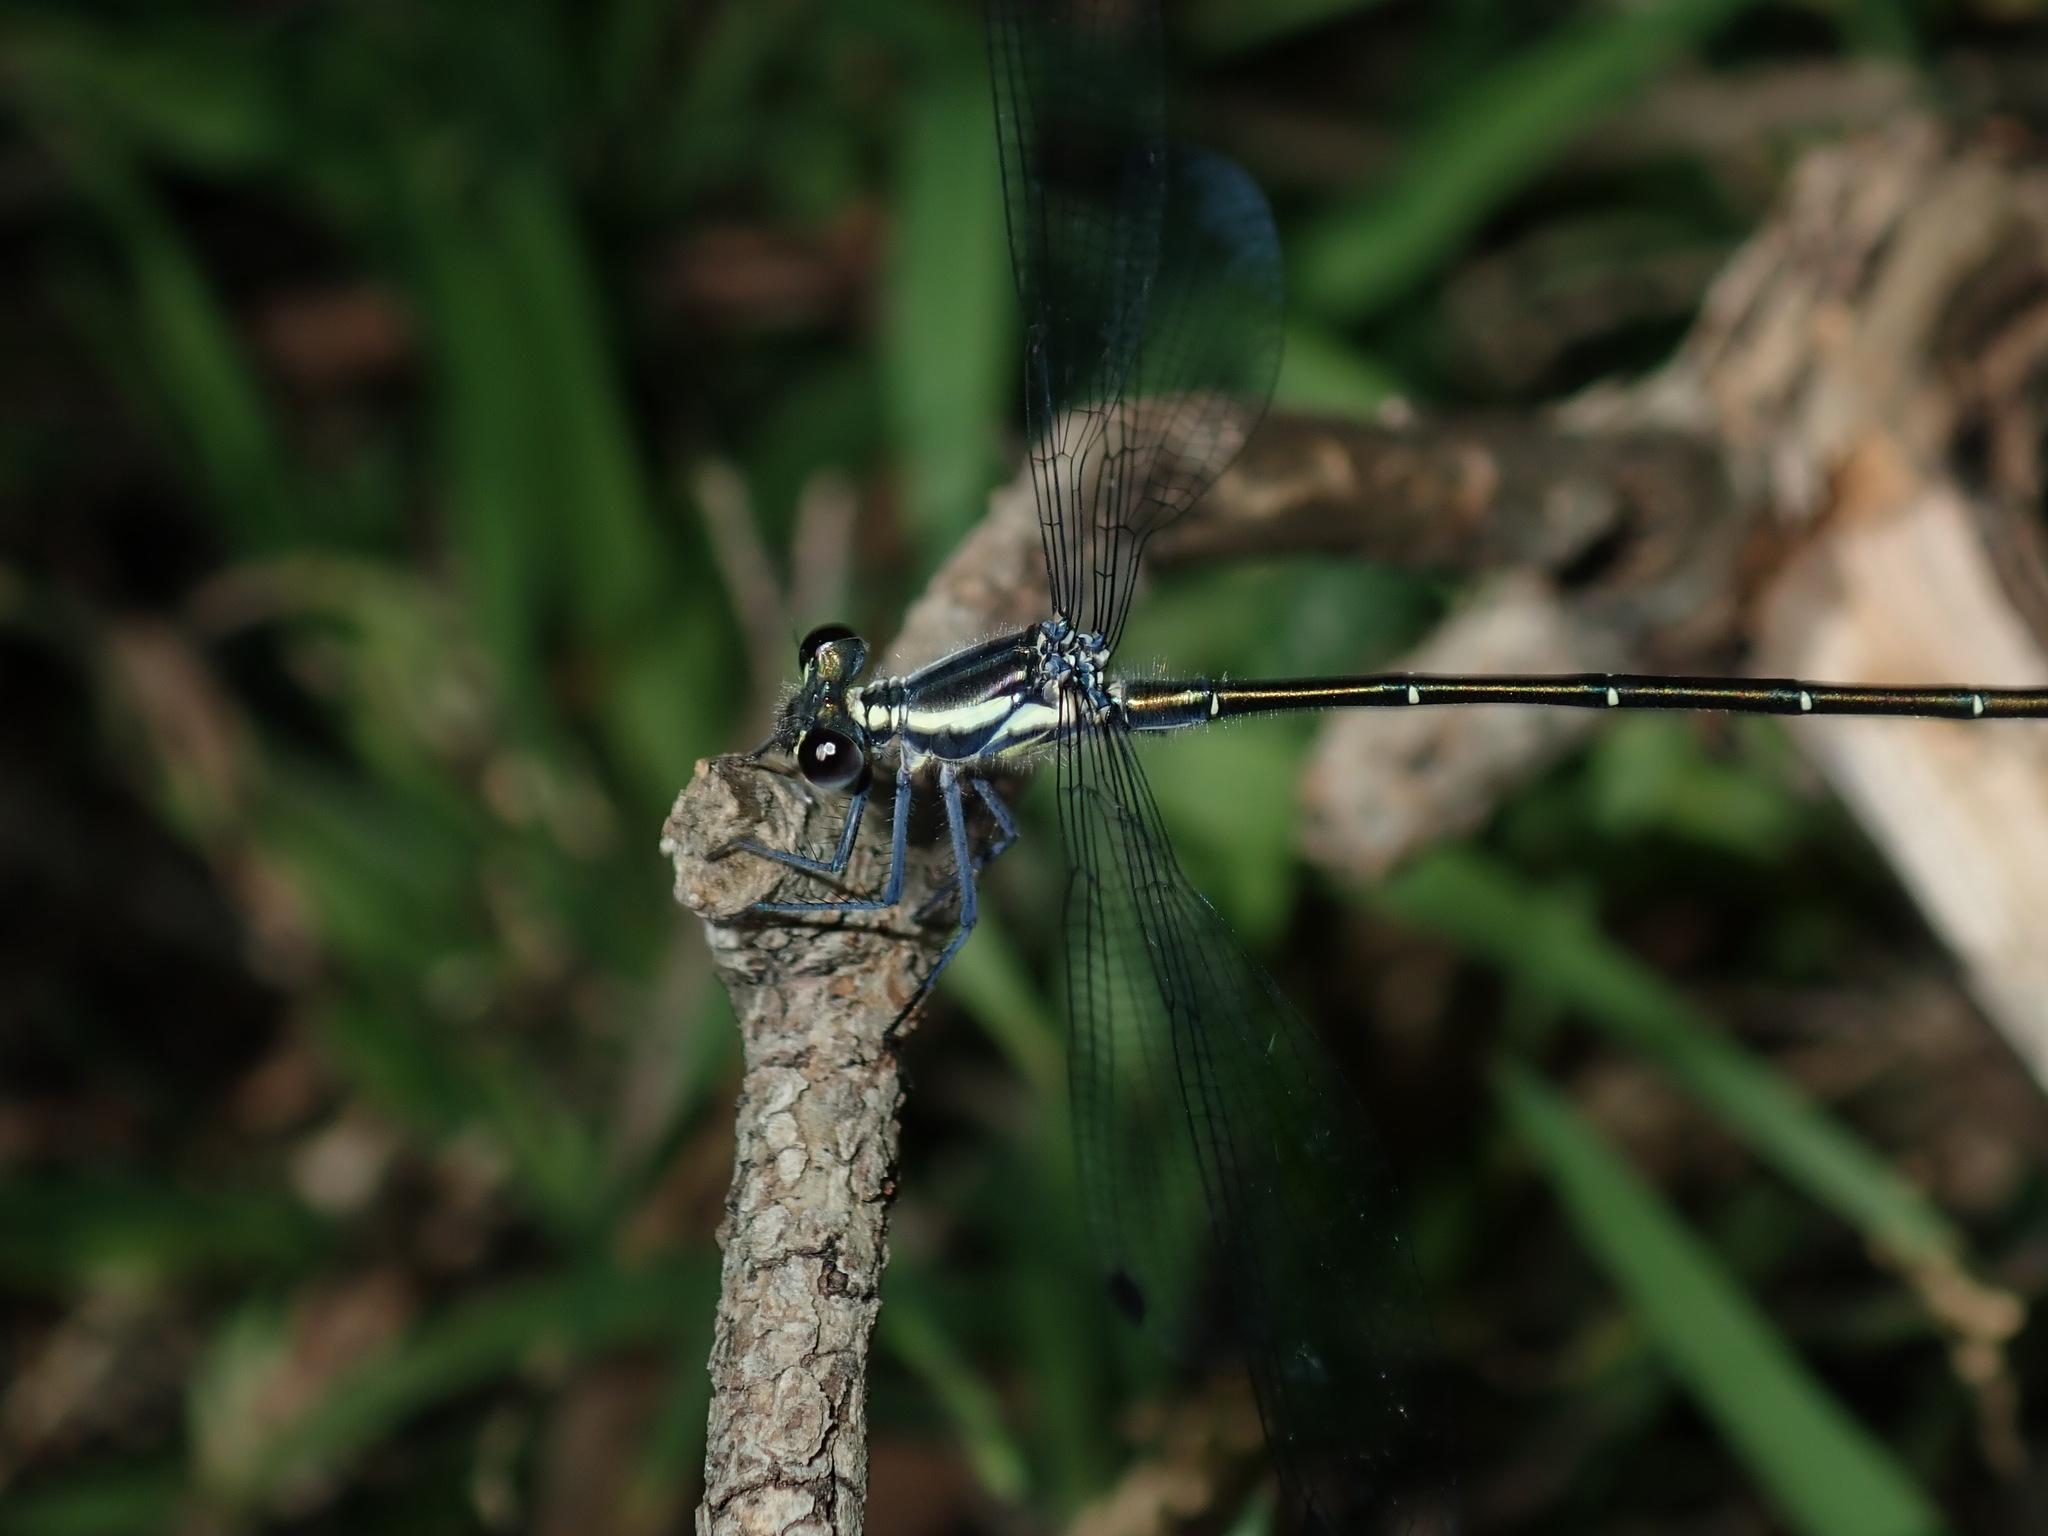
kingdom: Animalia
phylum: Arthropoda
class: Insecta
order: Odonata
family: Argiolestidae
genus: Austroargiolestes
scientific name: Austroargiolestes icteromelas
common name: Common flatwing
